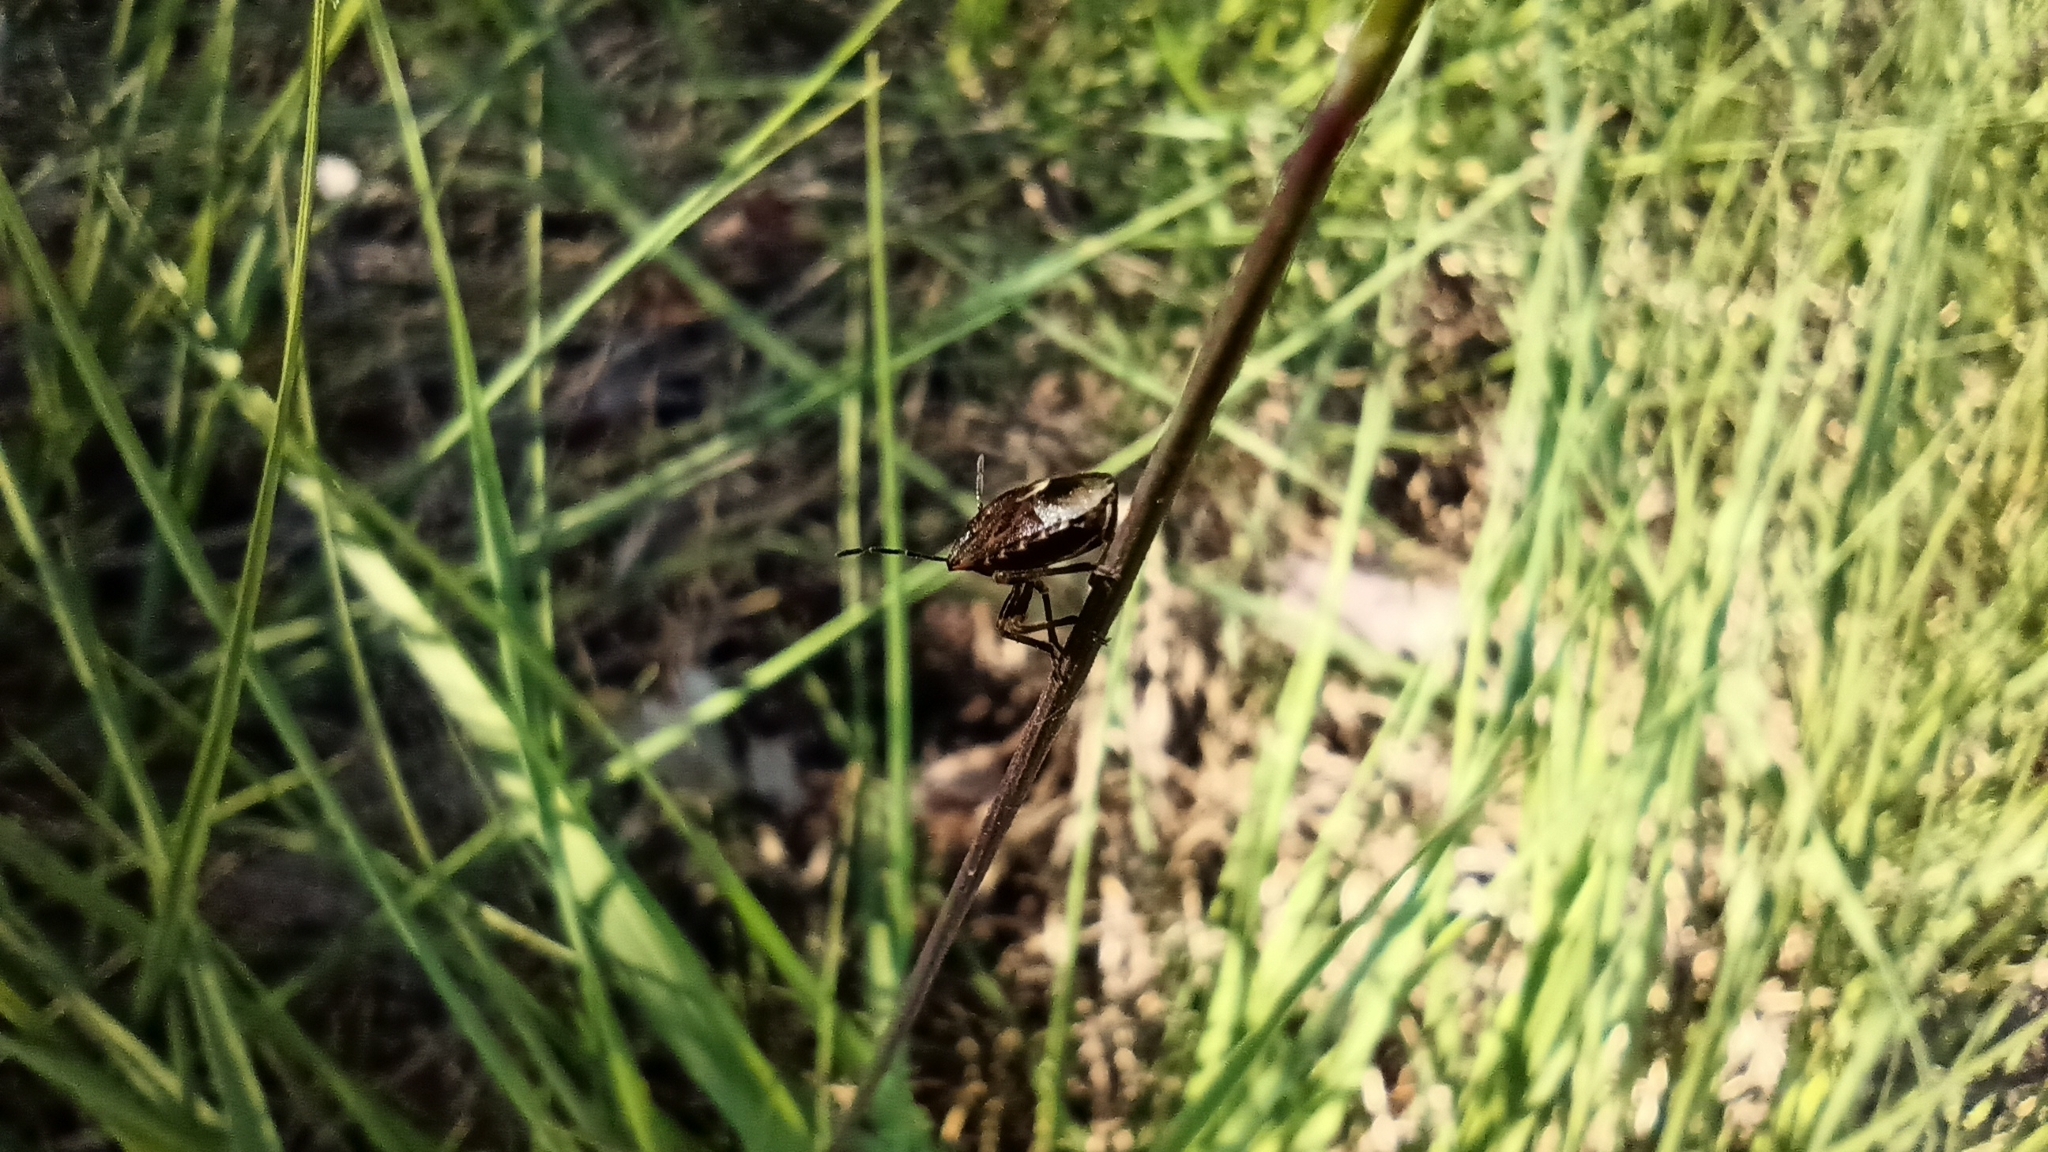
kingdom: Animalia
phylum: Arthropoda
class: Insecta
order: Hemiptera
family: Pentatomidae
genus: Holcogaster
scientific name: Holcogaster fibulata
